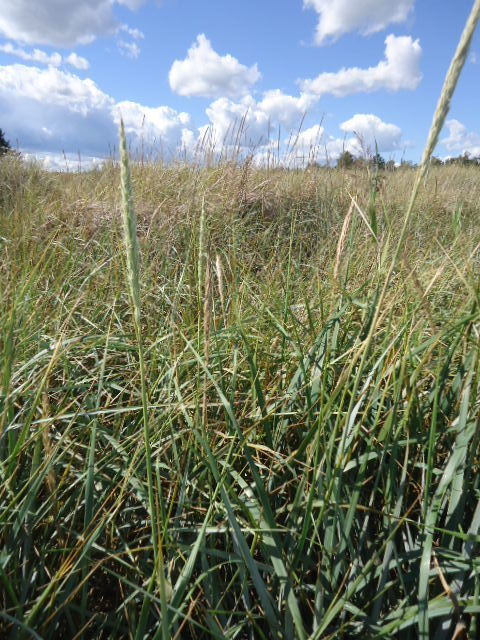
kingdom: Plantae
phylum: Tracheophyta
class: Liliopsida
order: Poales
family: Poaceae
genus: Leymus
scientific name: Leymus arenarius
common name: Lyme-grass
